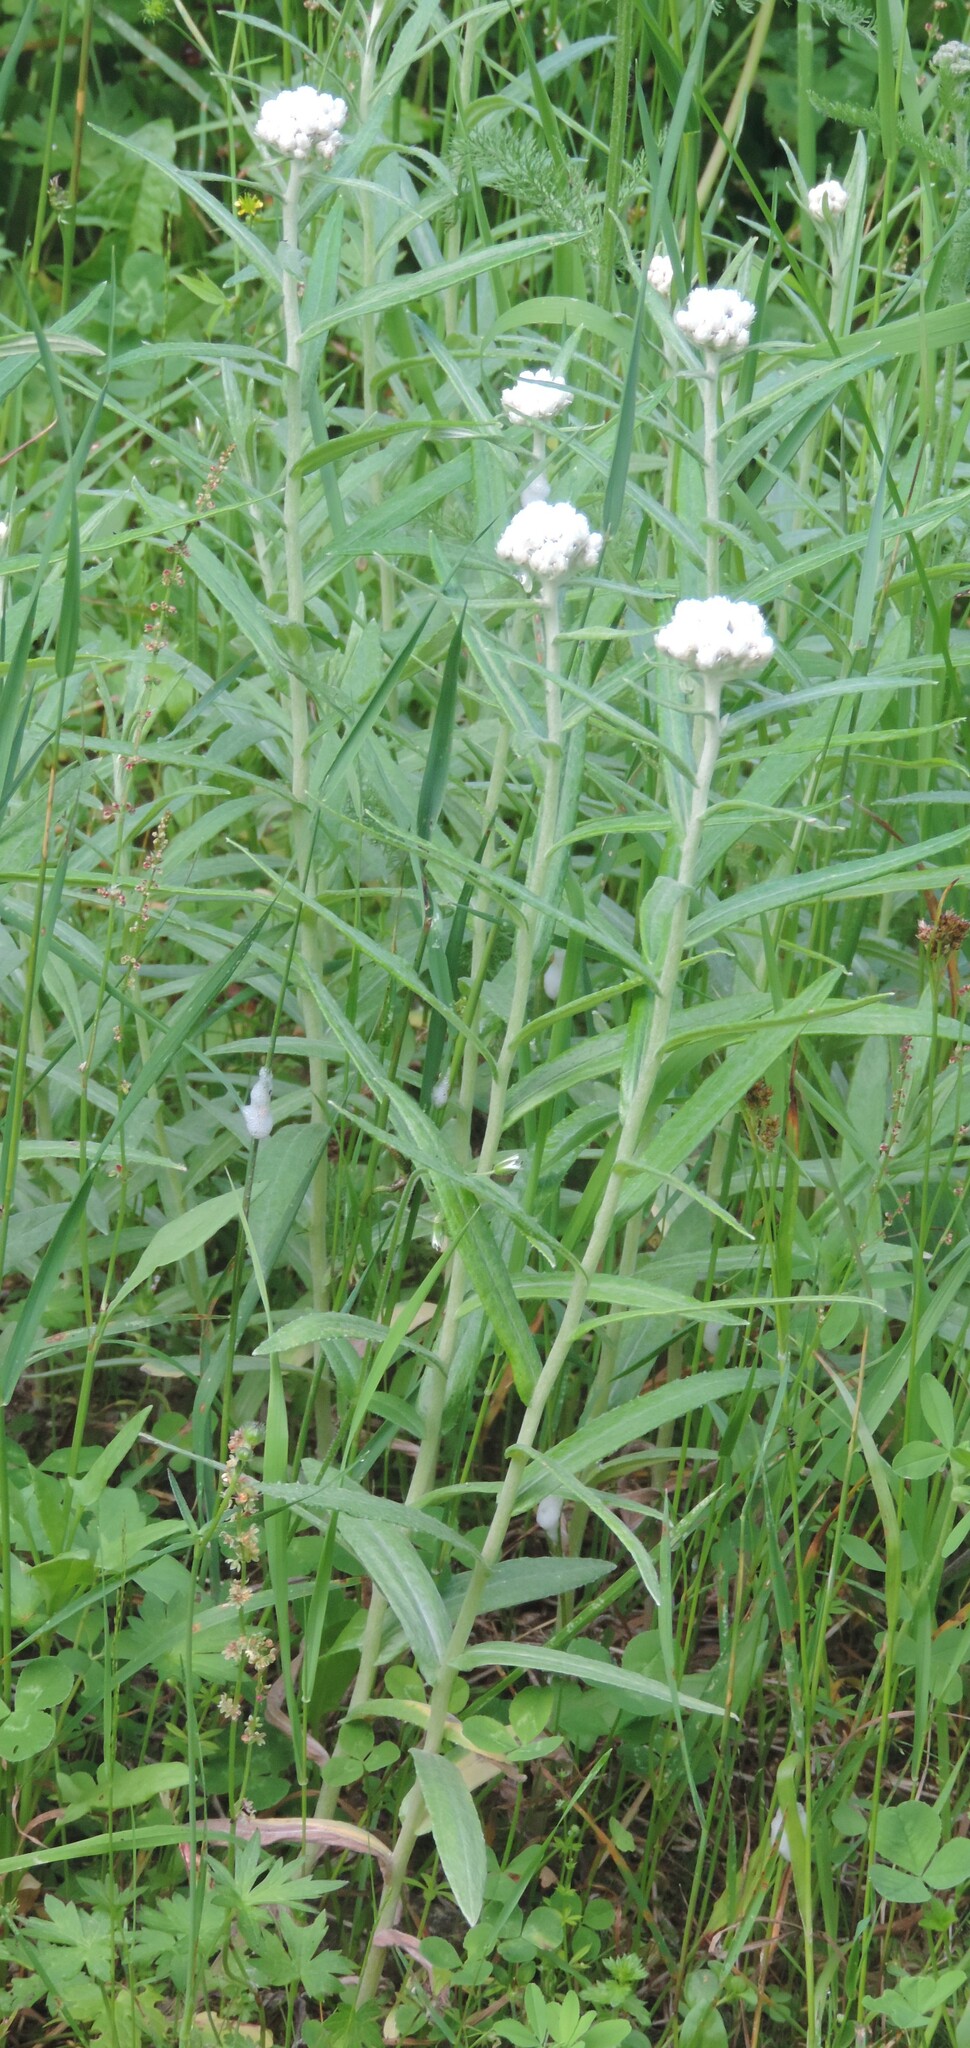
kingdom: Plantae
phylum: Tracheophyta
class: Magnoliopsida
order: Asterales
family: Asteraceae
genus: Anaphalis
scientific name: Anaphalis margaritacea
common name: Pearly everlasting
